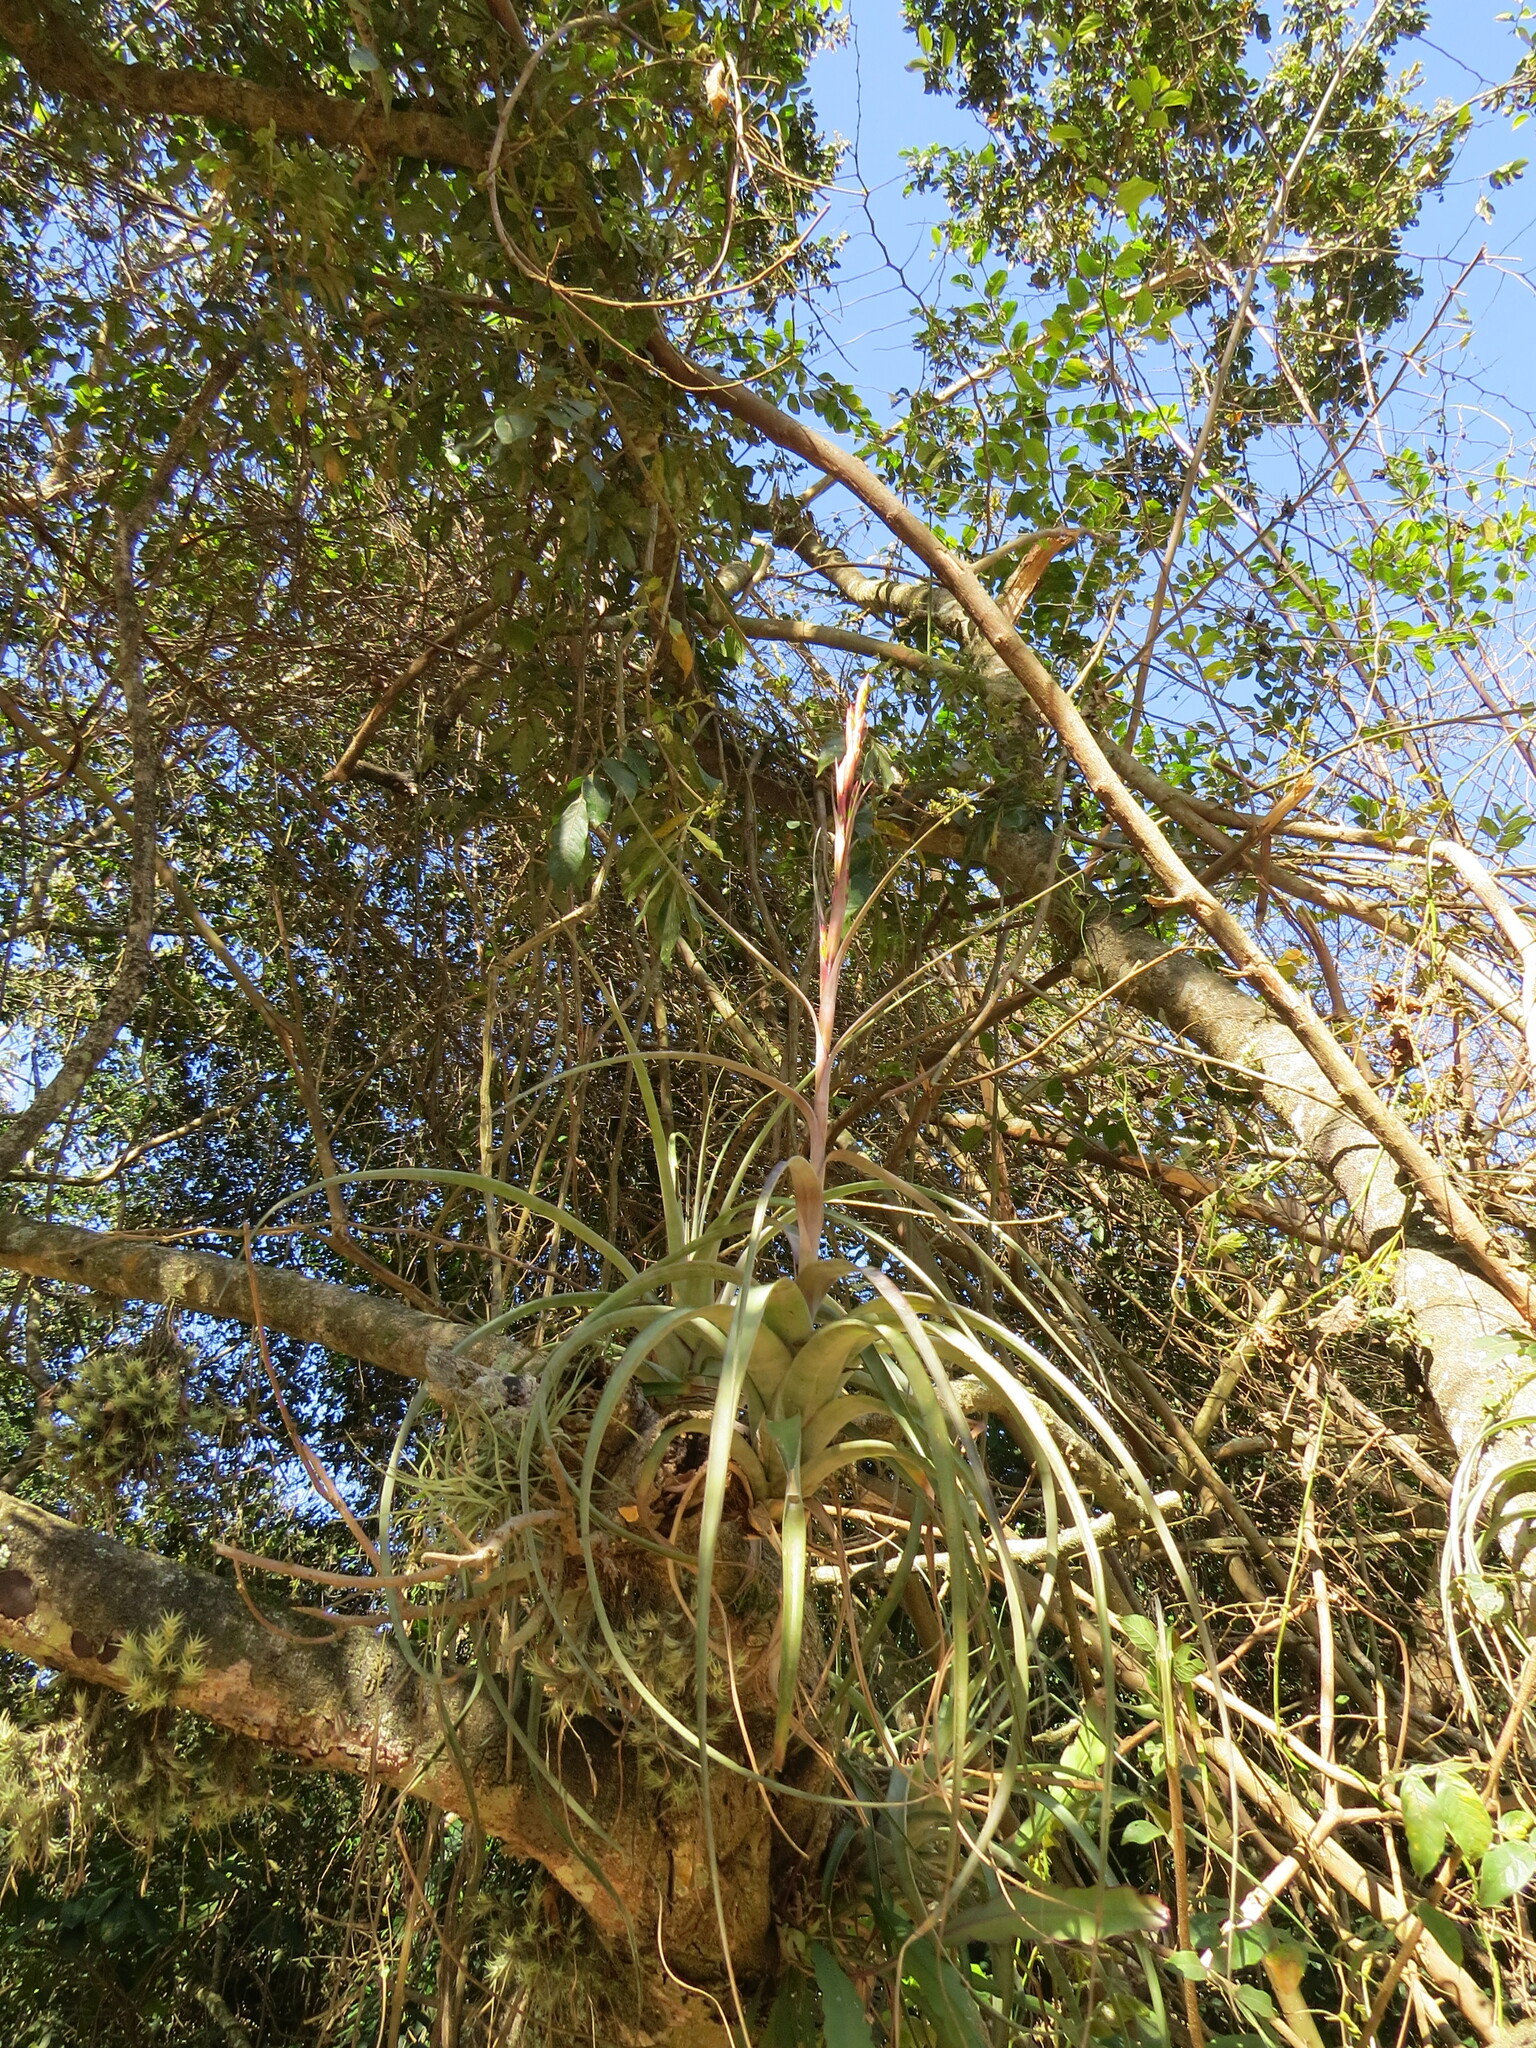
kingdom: Plantae
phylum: Tracheophyta
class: Liliopsida
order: Poales
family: Bromeliaceae
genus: Tillandsia
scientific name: Tillandsia polystachia
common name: Airplant
